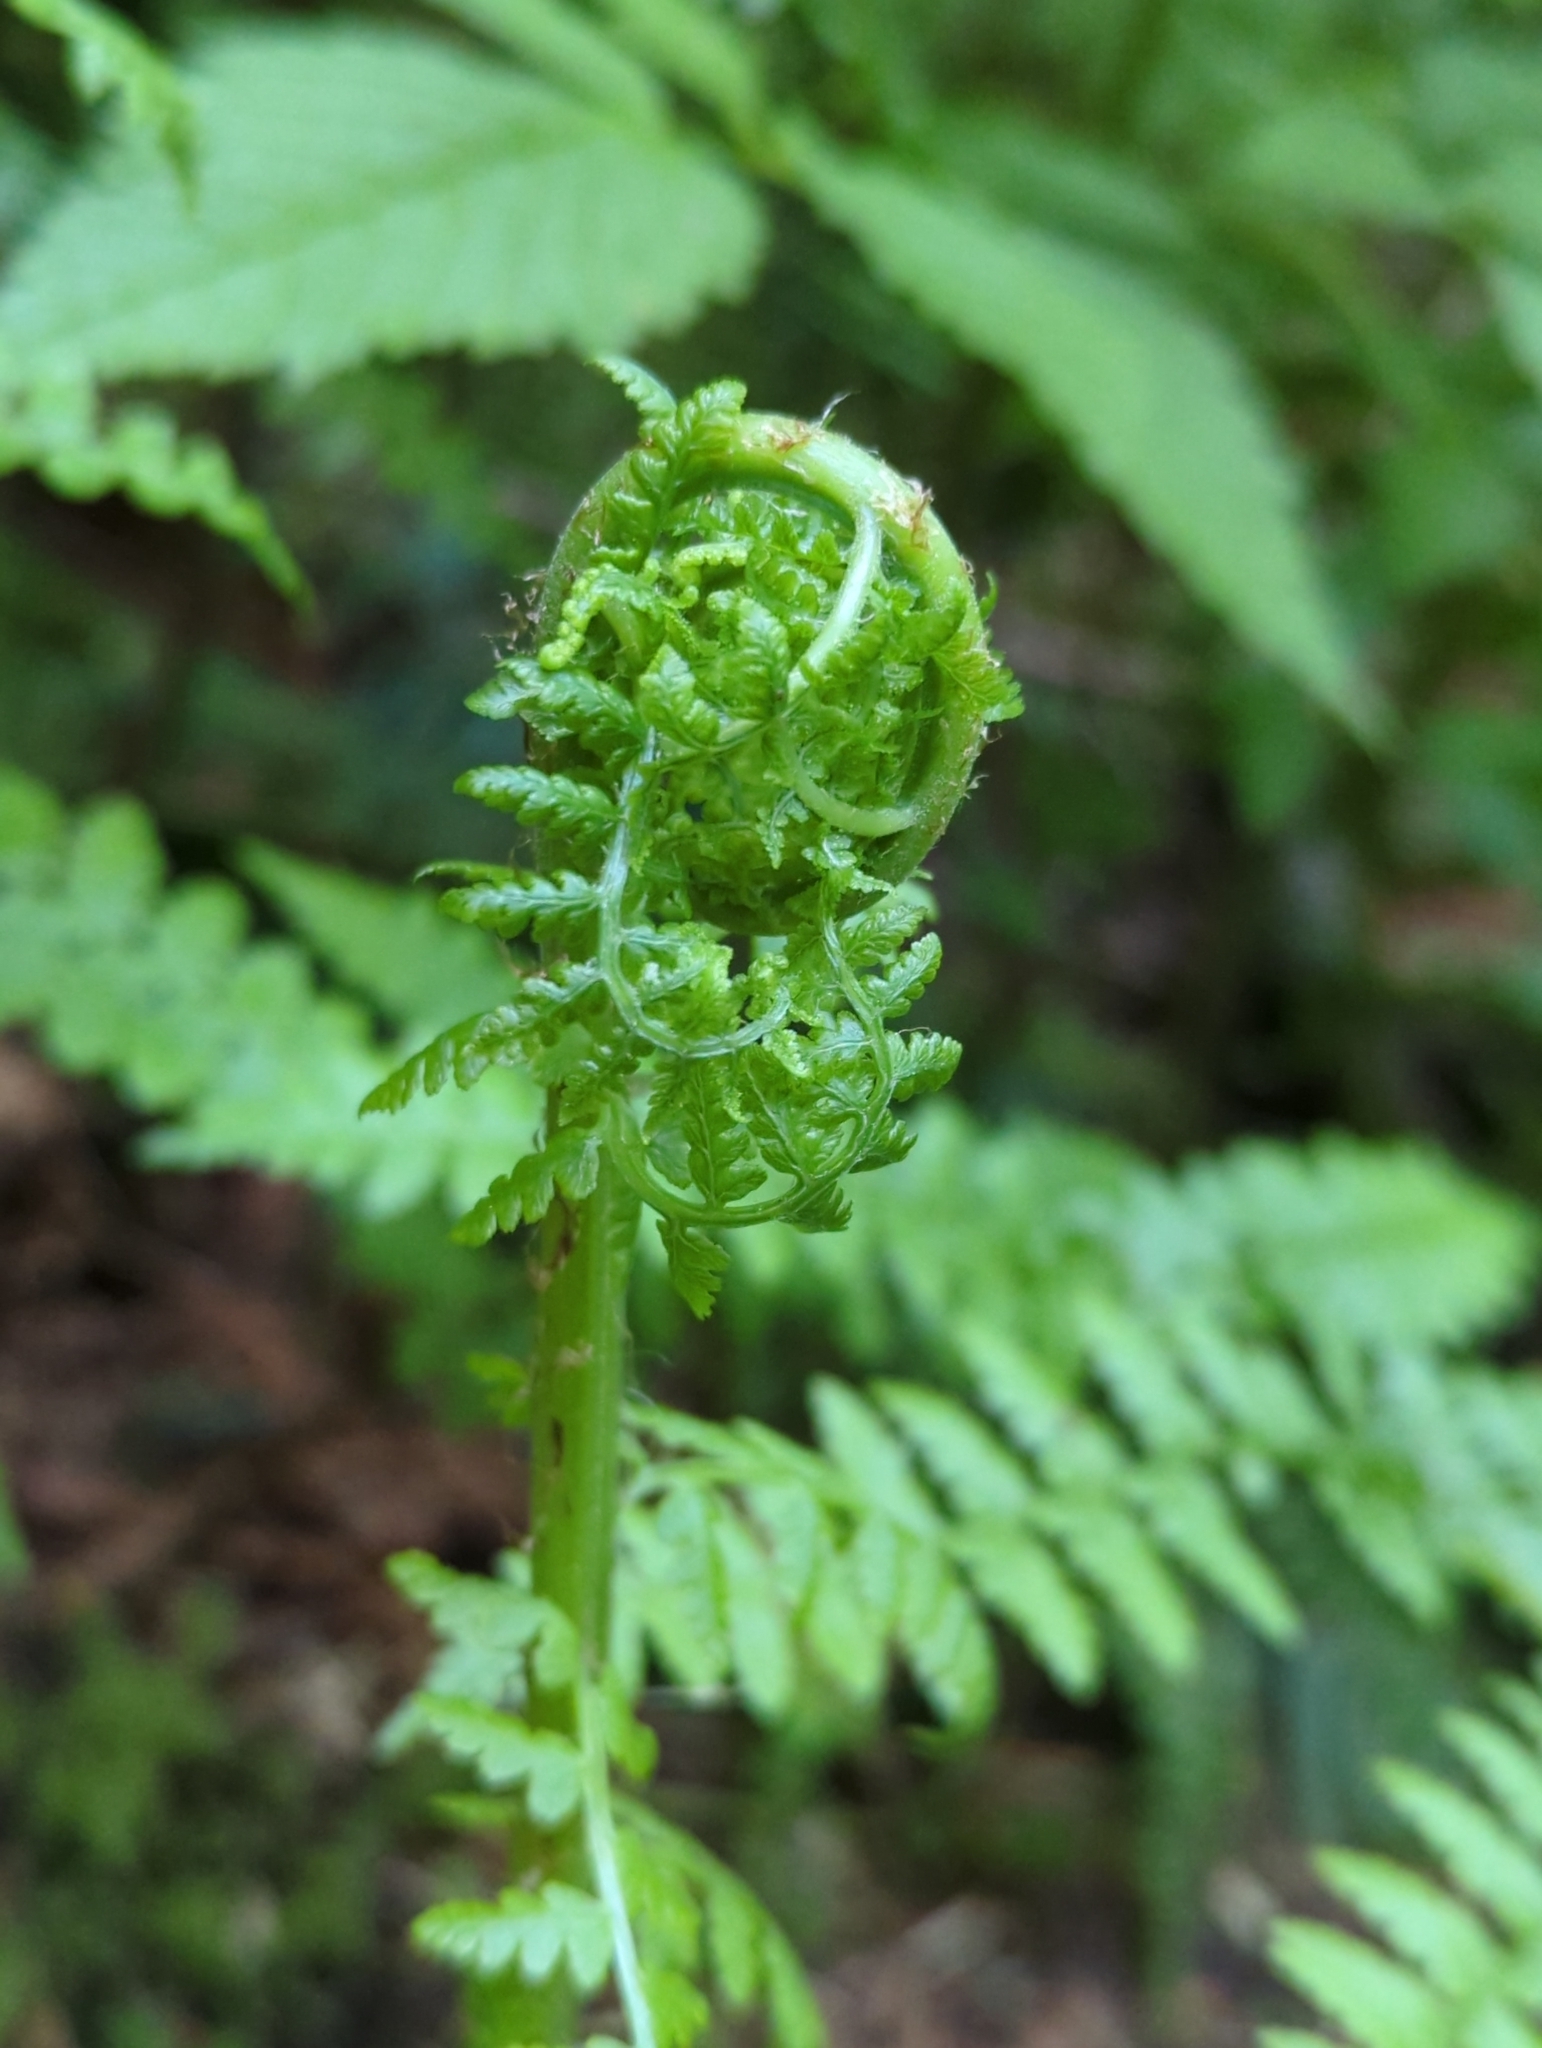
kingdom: Plantae
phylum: Tracheophyta
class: Polypodiopsida
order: Polypodiales
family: Athyriaceae
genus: Athyrium
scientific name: Athyrium filix-femina
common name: Lady fern
